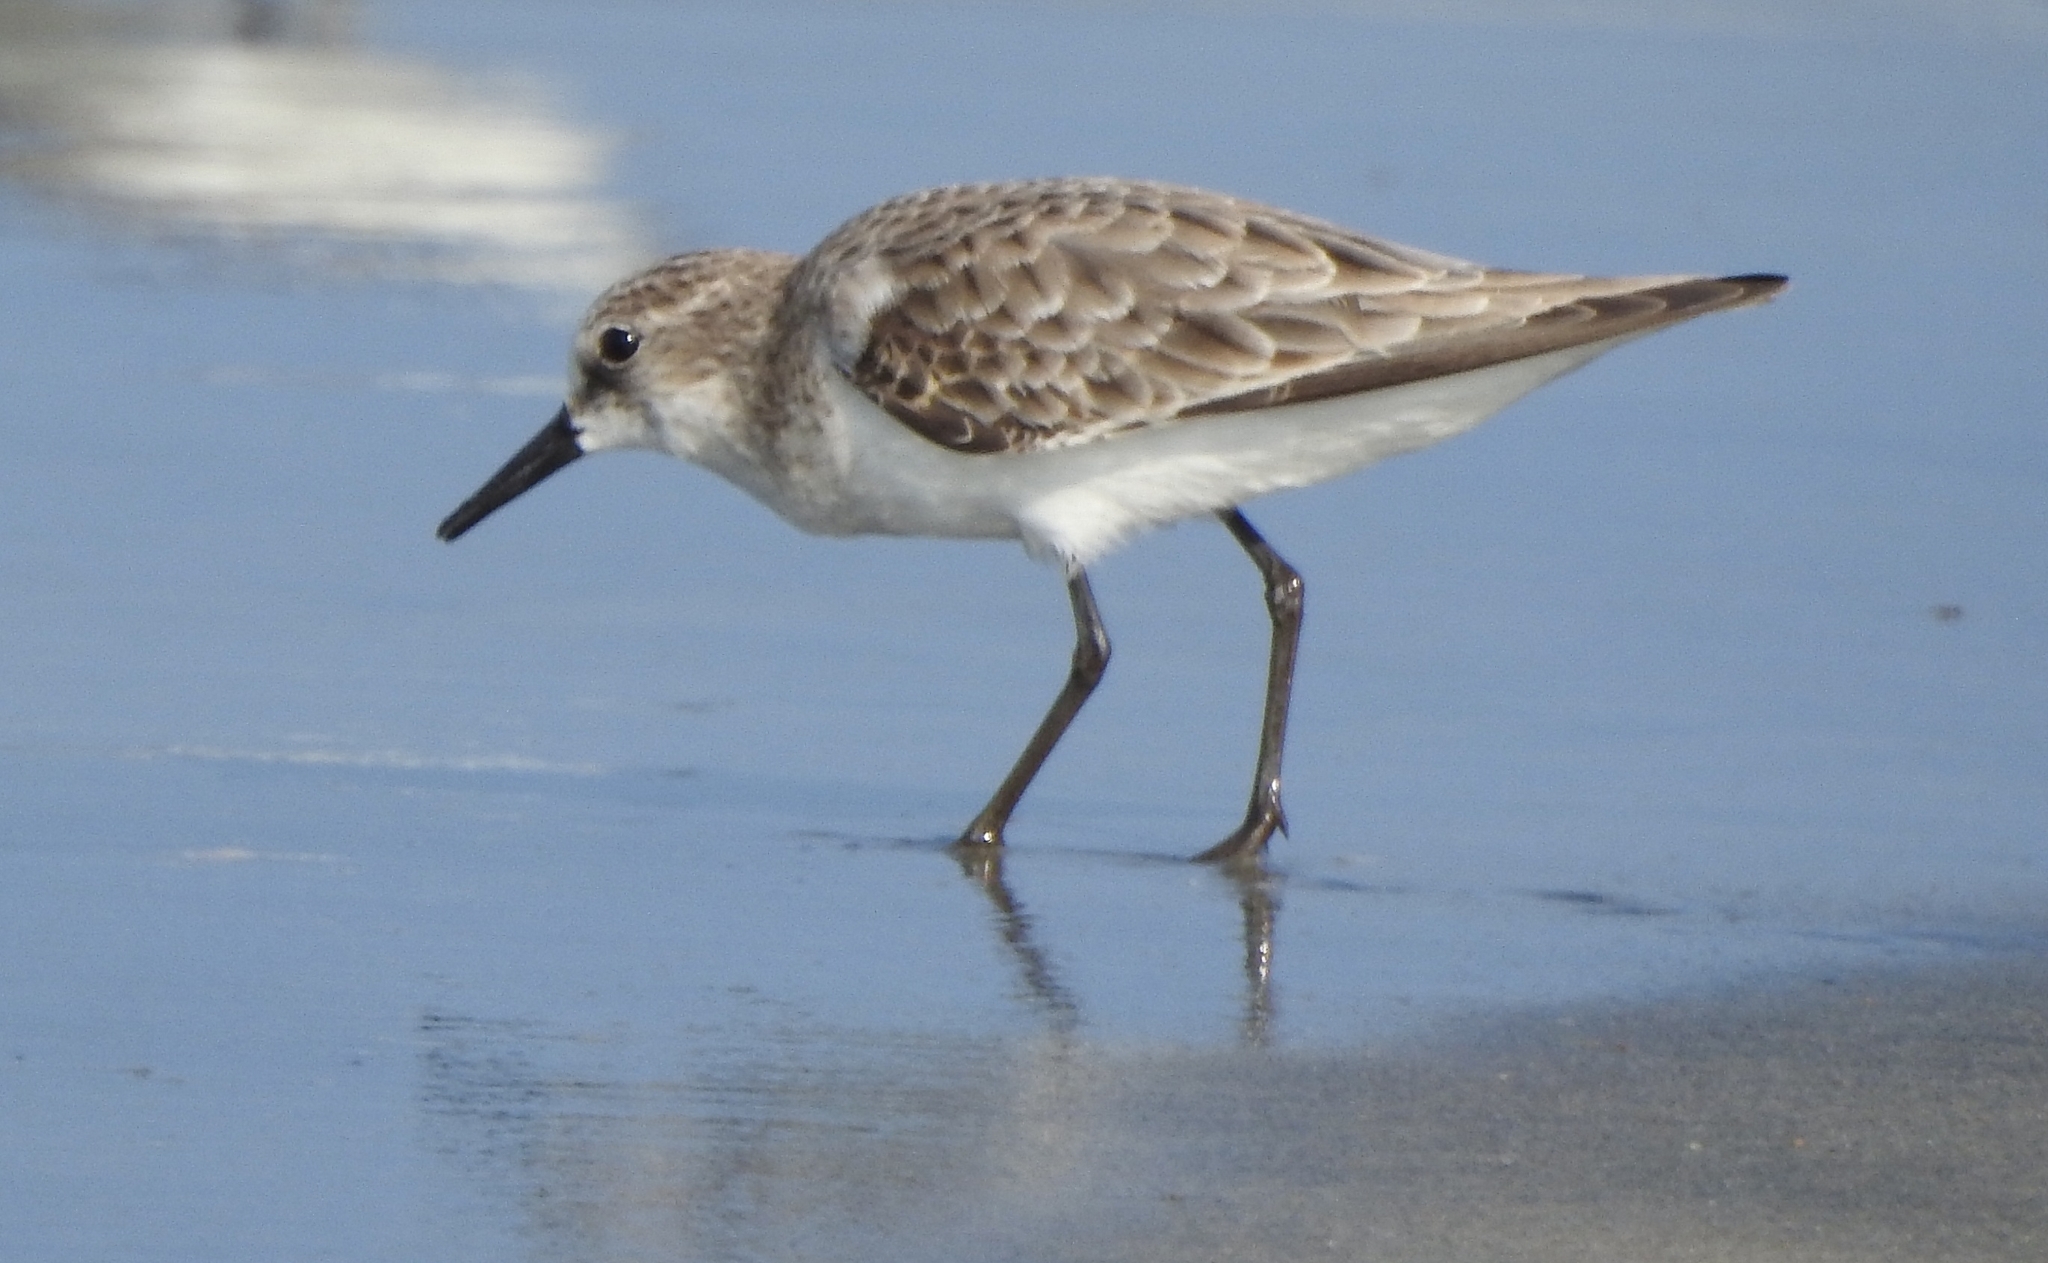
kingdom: Animalia
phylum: Chordata
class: Aves
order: Charadriiformes
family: Scolopacidae
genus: Calidris
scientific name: Calidris minuta
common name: Little stint
